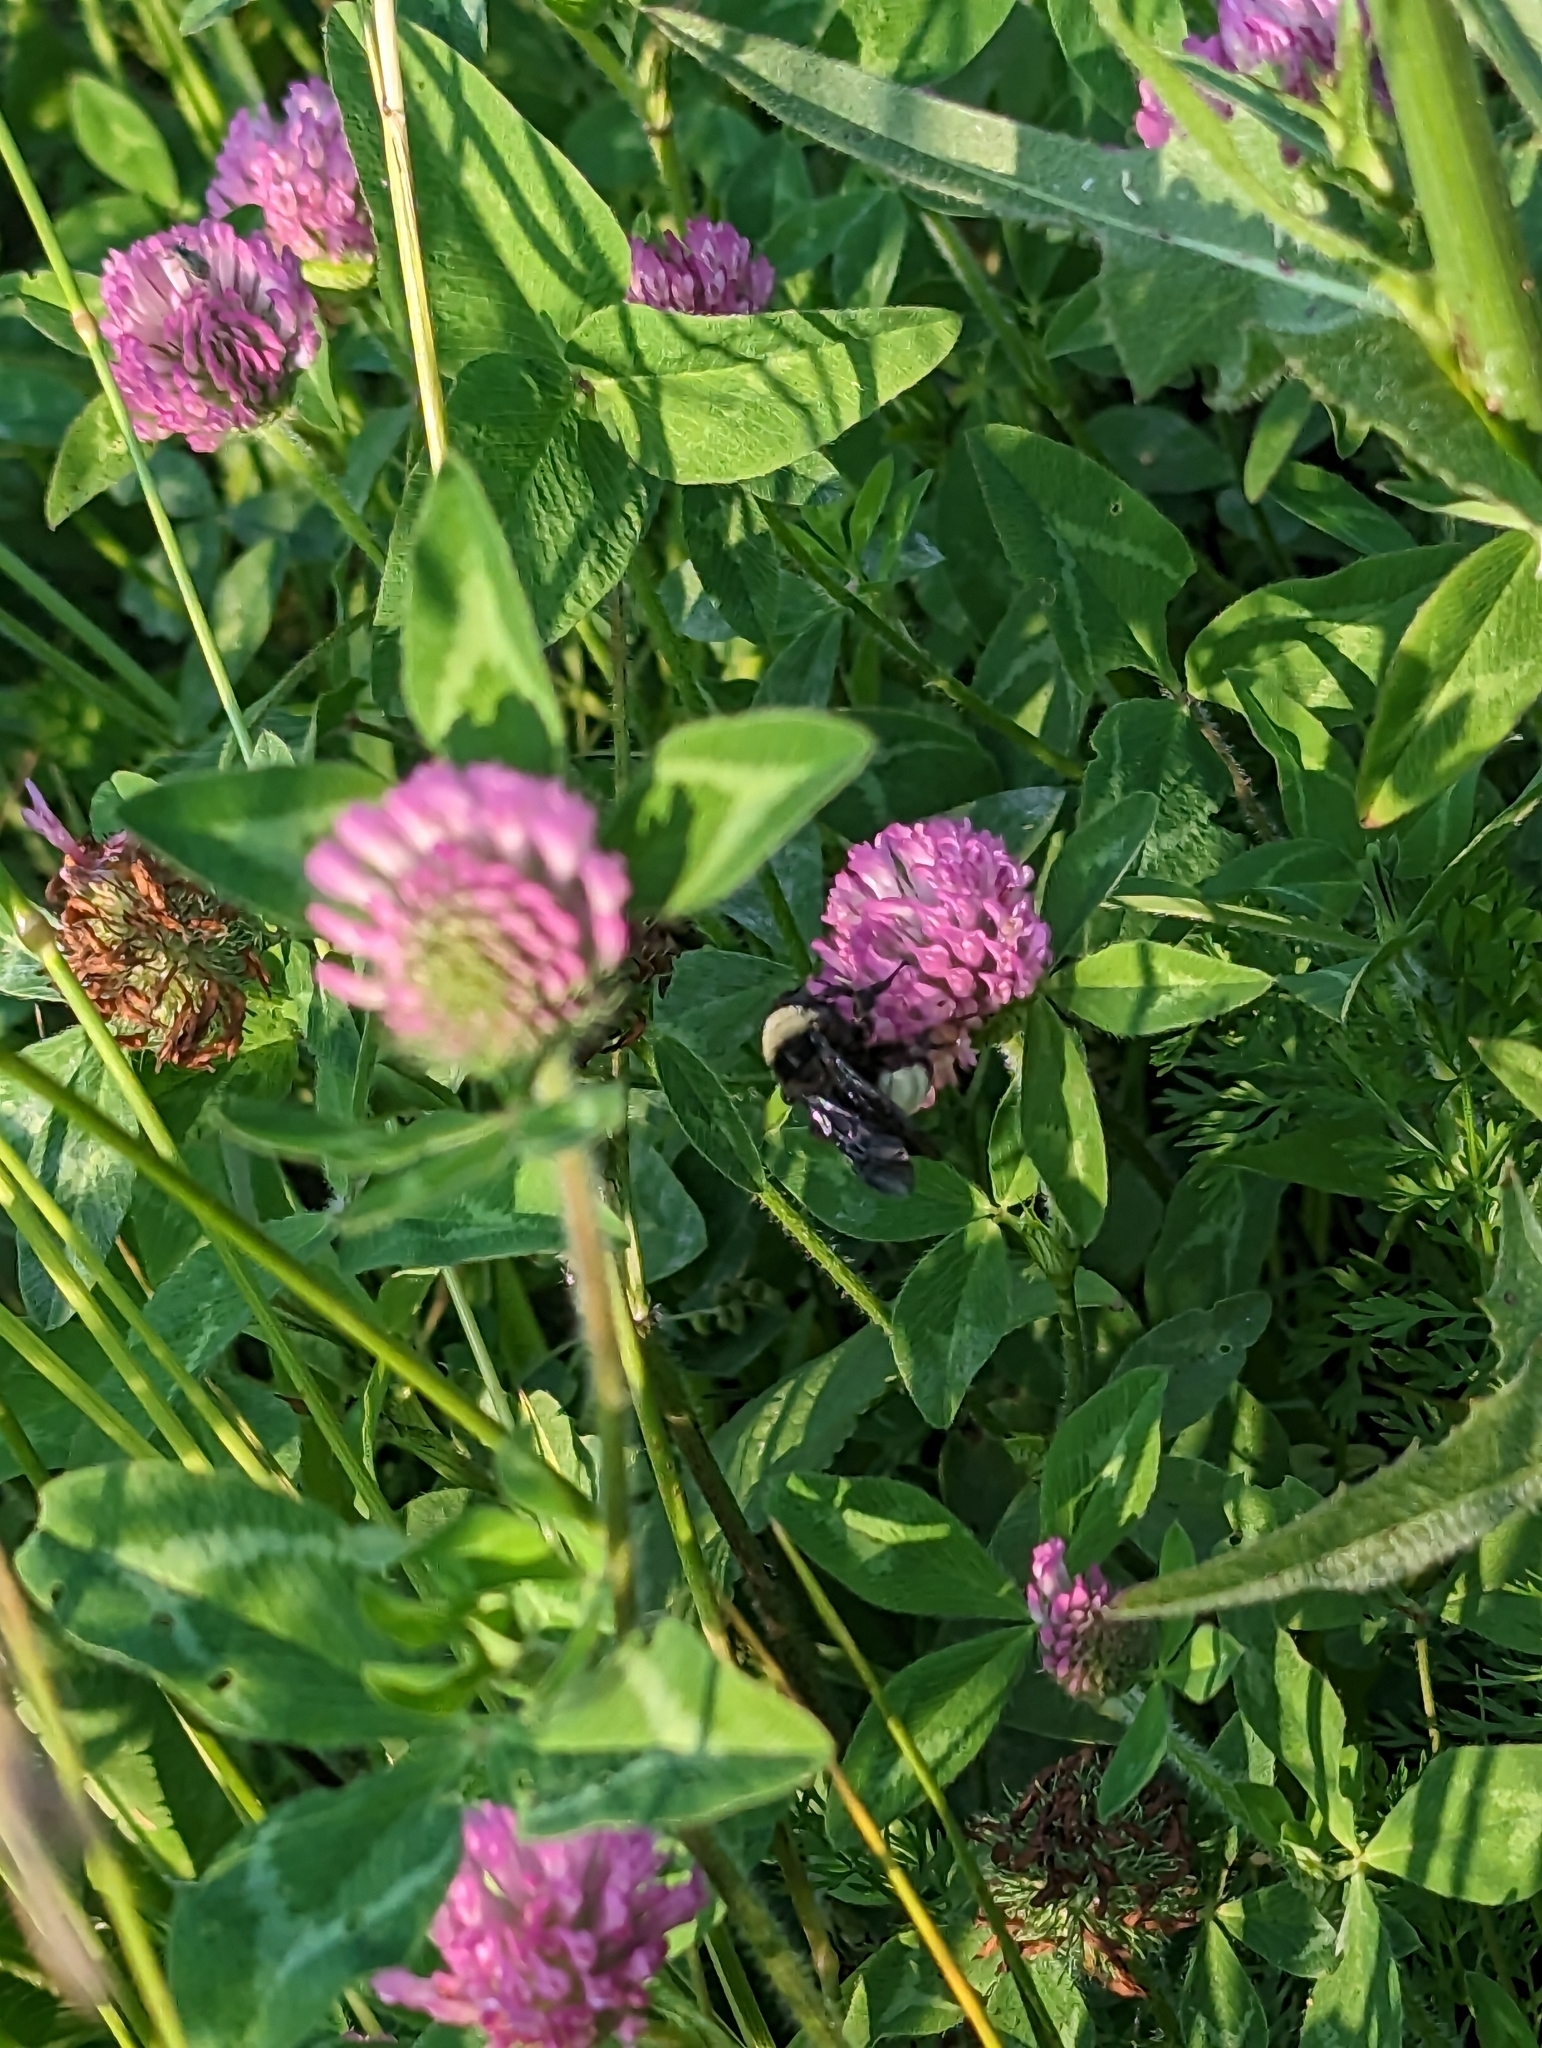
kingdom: Animalia
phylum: Arthropoda
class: Insecta
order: Hymenoptera
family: Apidae
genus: Bombus
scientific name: Bombus pensylvanicus
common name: Bumble bee
